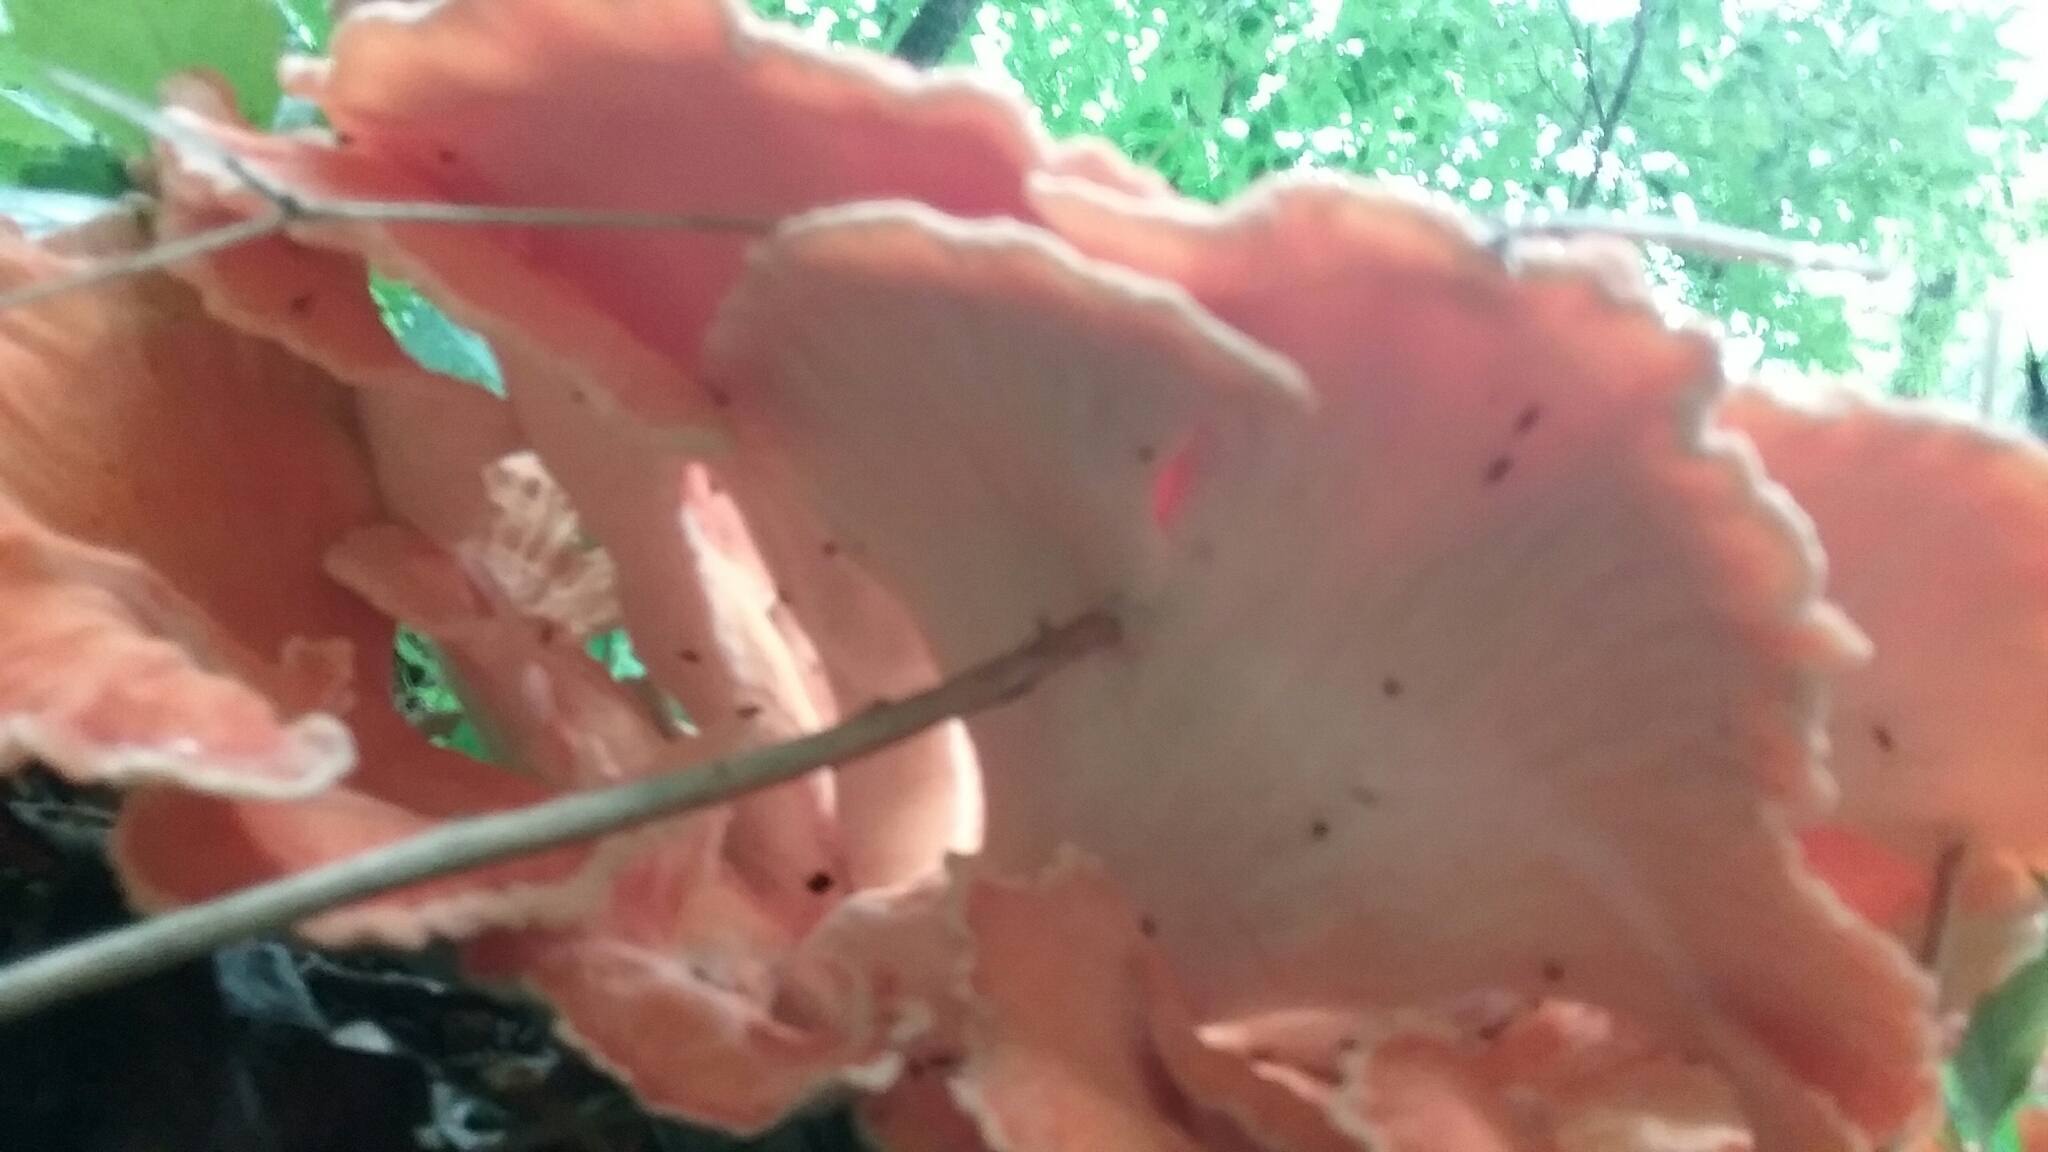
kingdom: Fungi
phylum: Basidiomycota
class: Agaricomycetes
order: Polyporales
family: Laetiporaceae
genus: Laetiporus
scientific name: Laetiporus sulphureus
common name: Chicken of the woods
